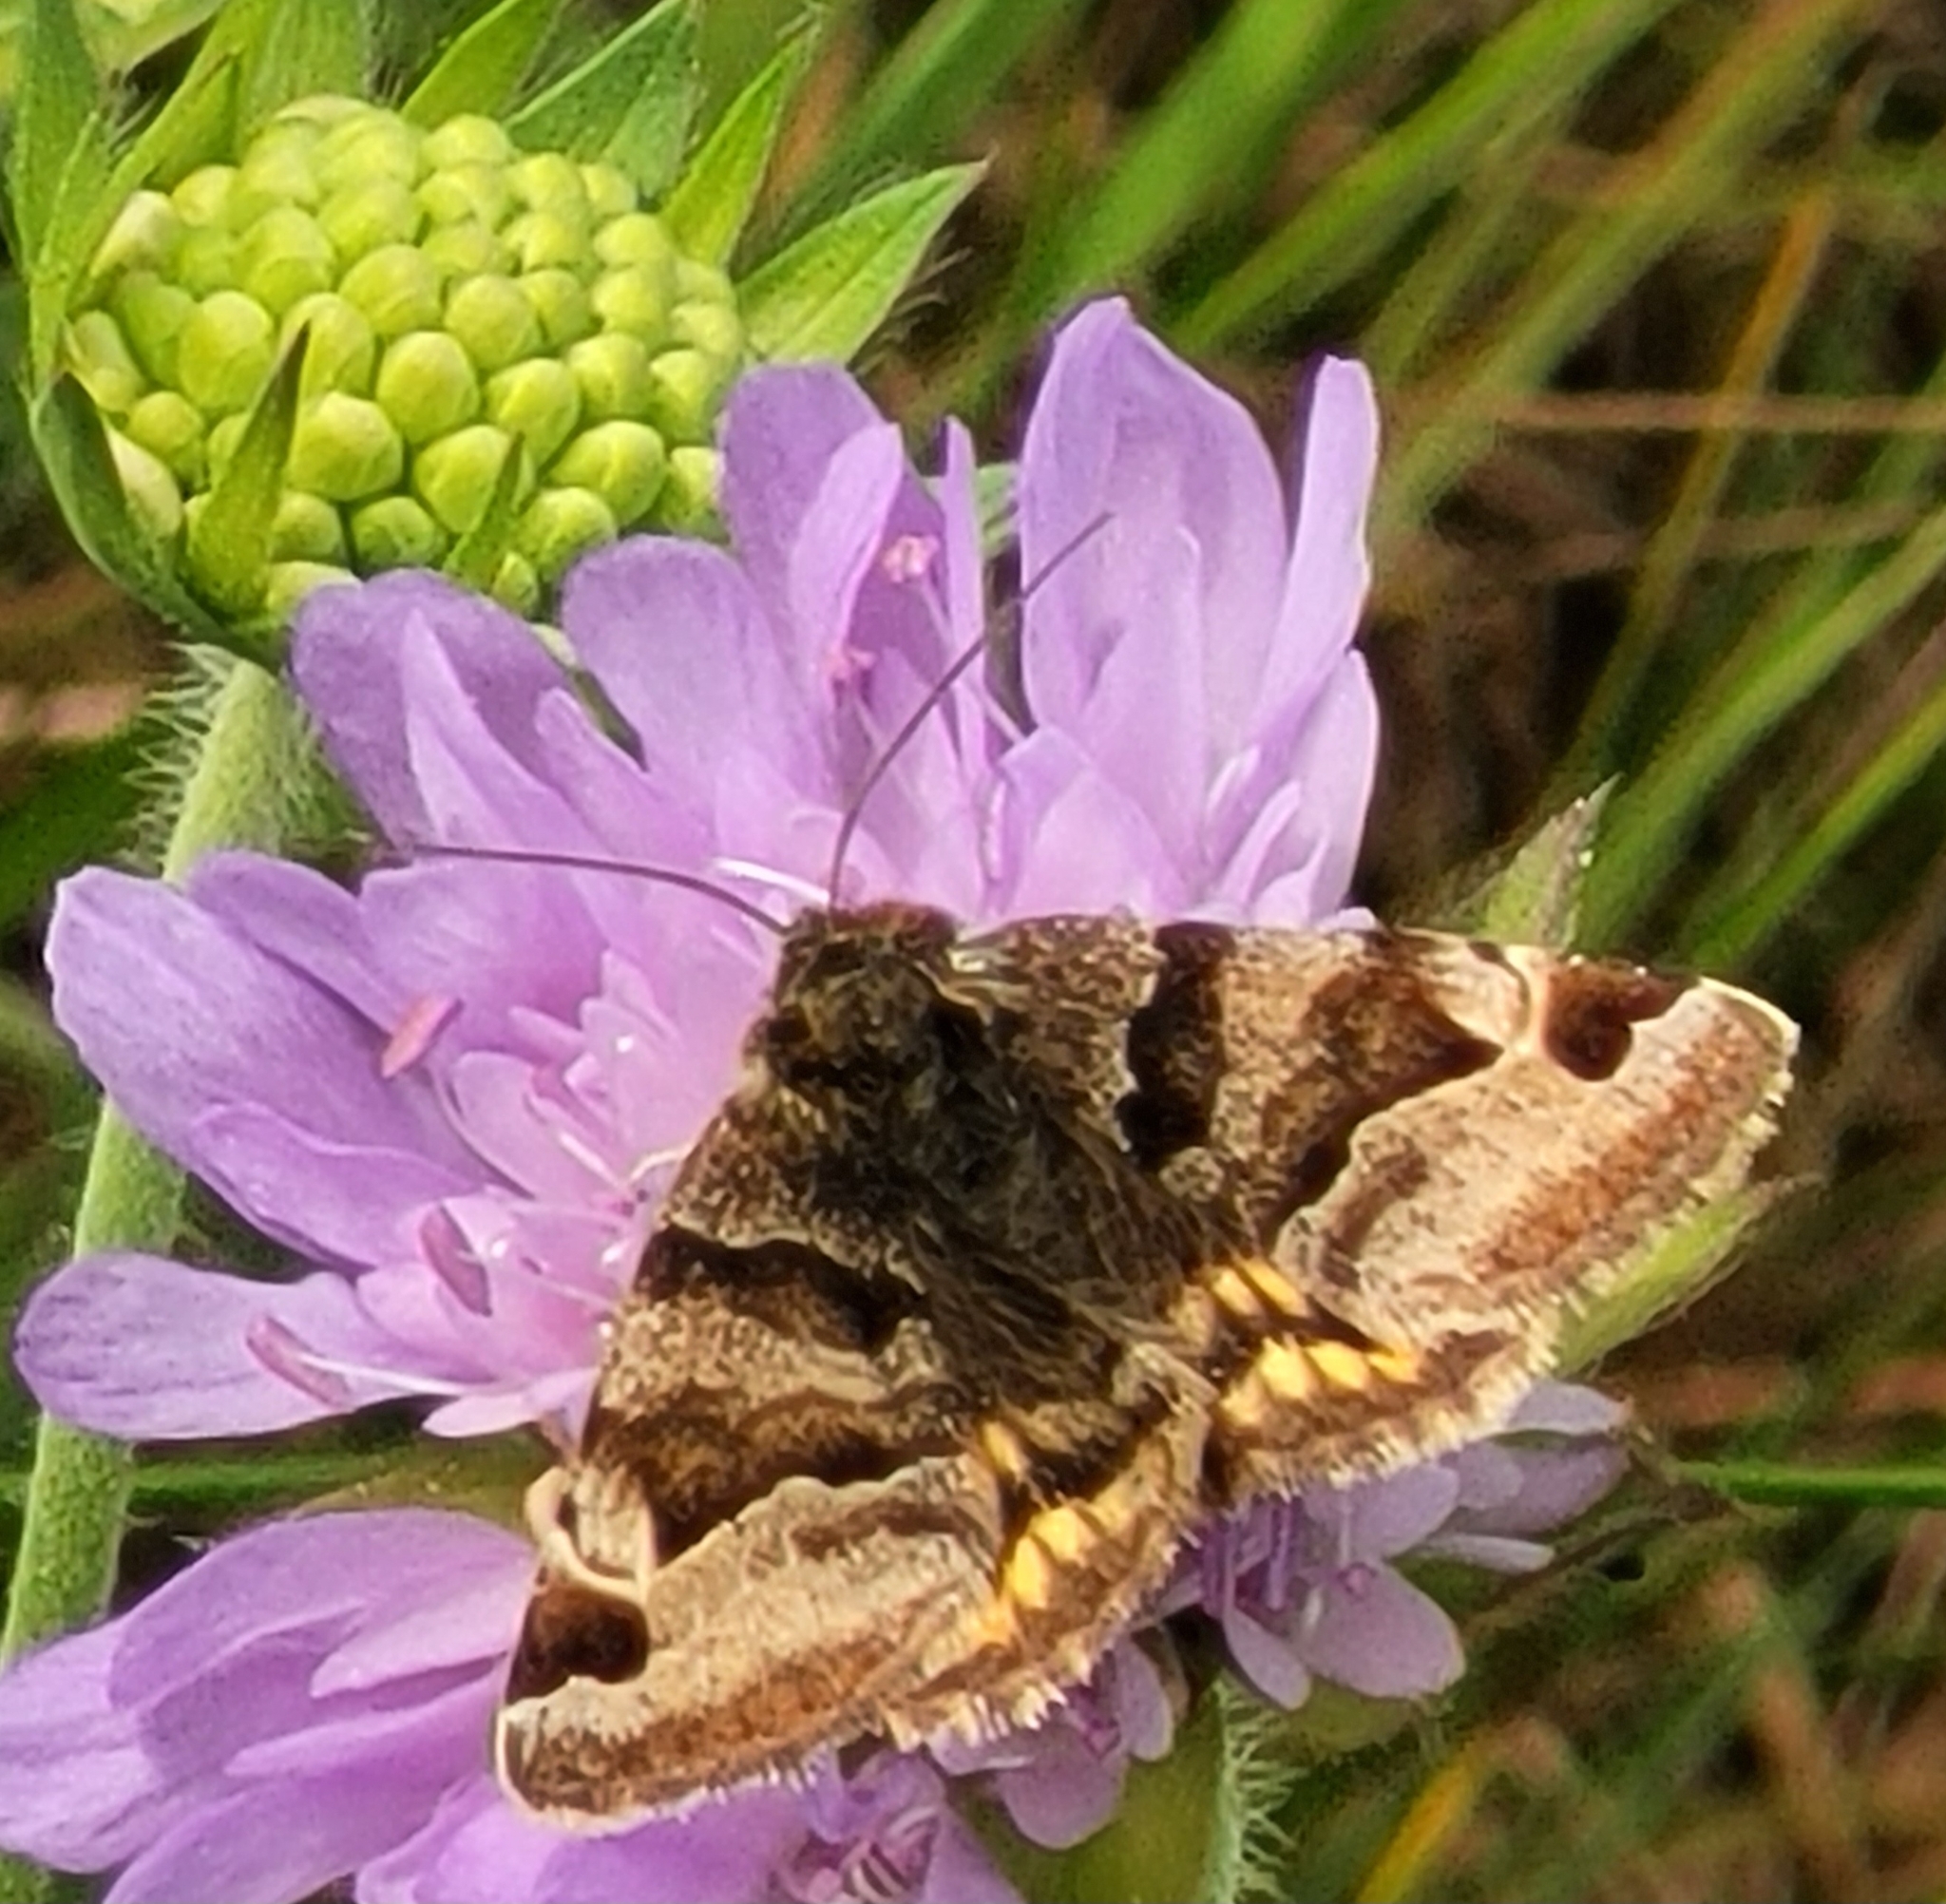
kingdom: Animalia
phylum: Arthropoda
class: Insecta
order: Lepidoptera
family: Erebidae
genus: Euclidia
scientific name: Euclidia glyphica
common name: Burnet companion
